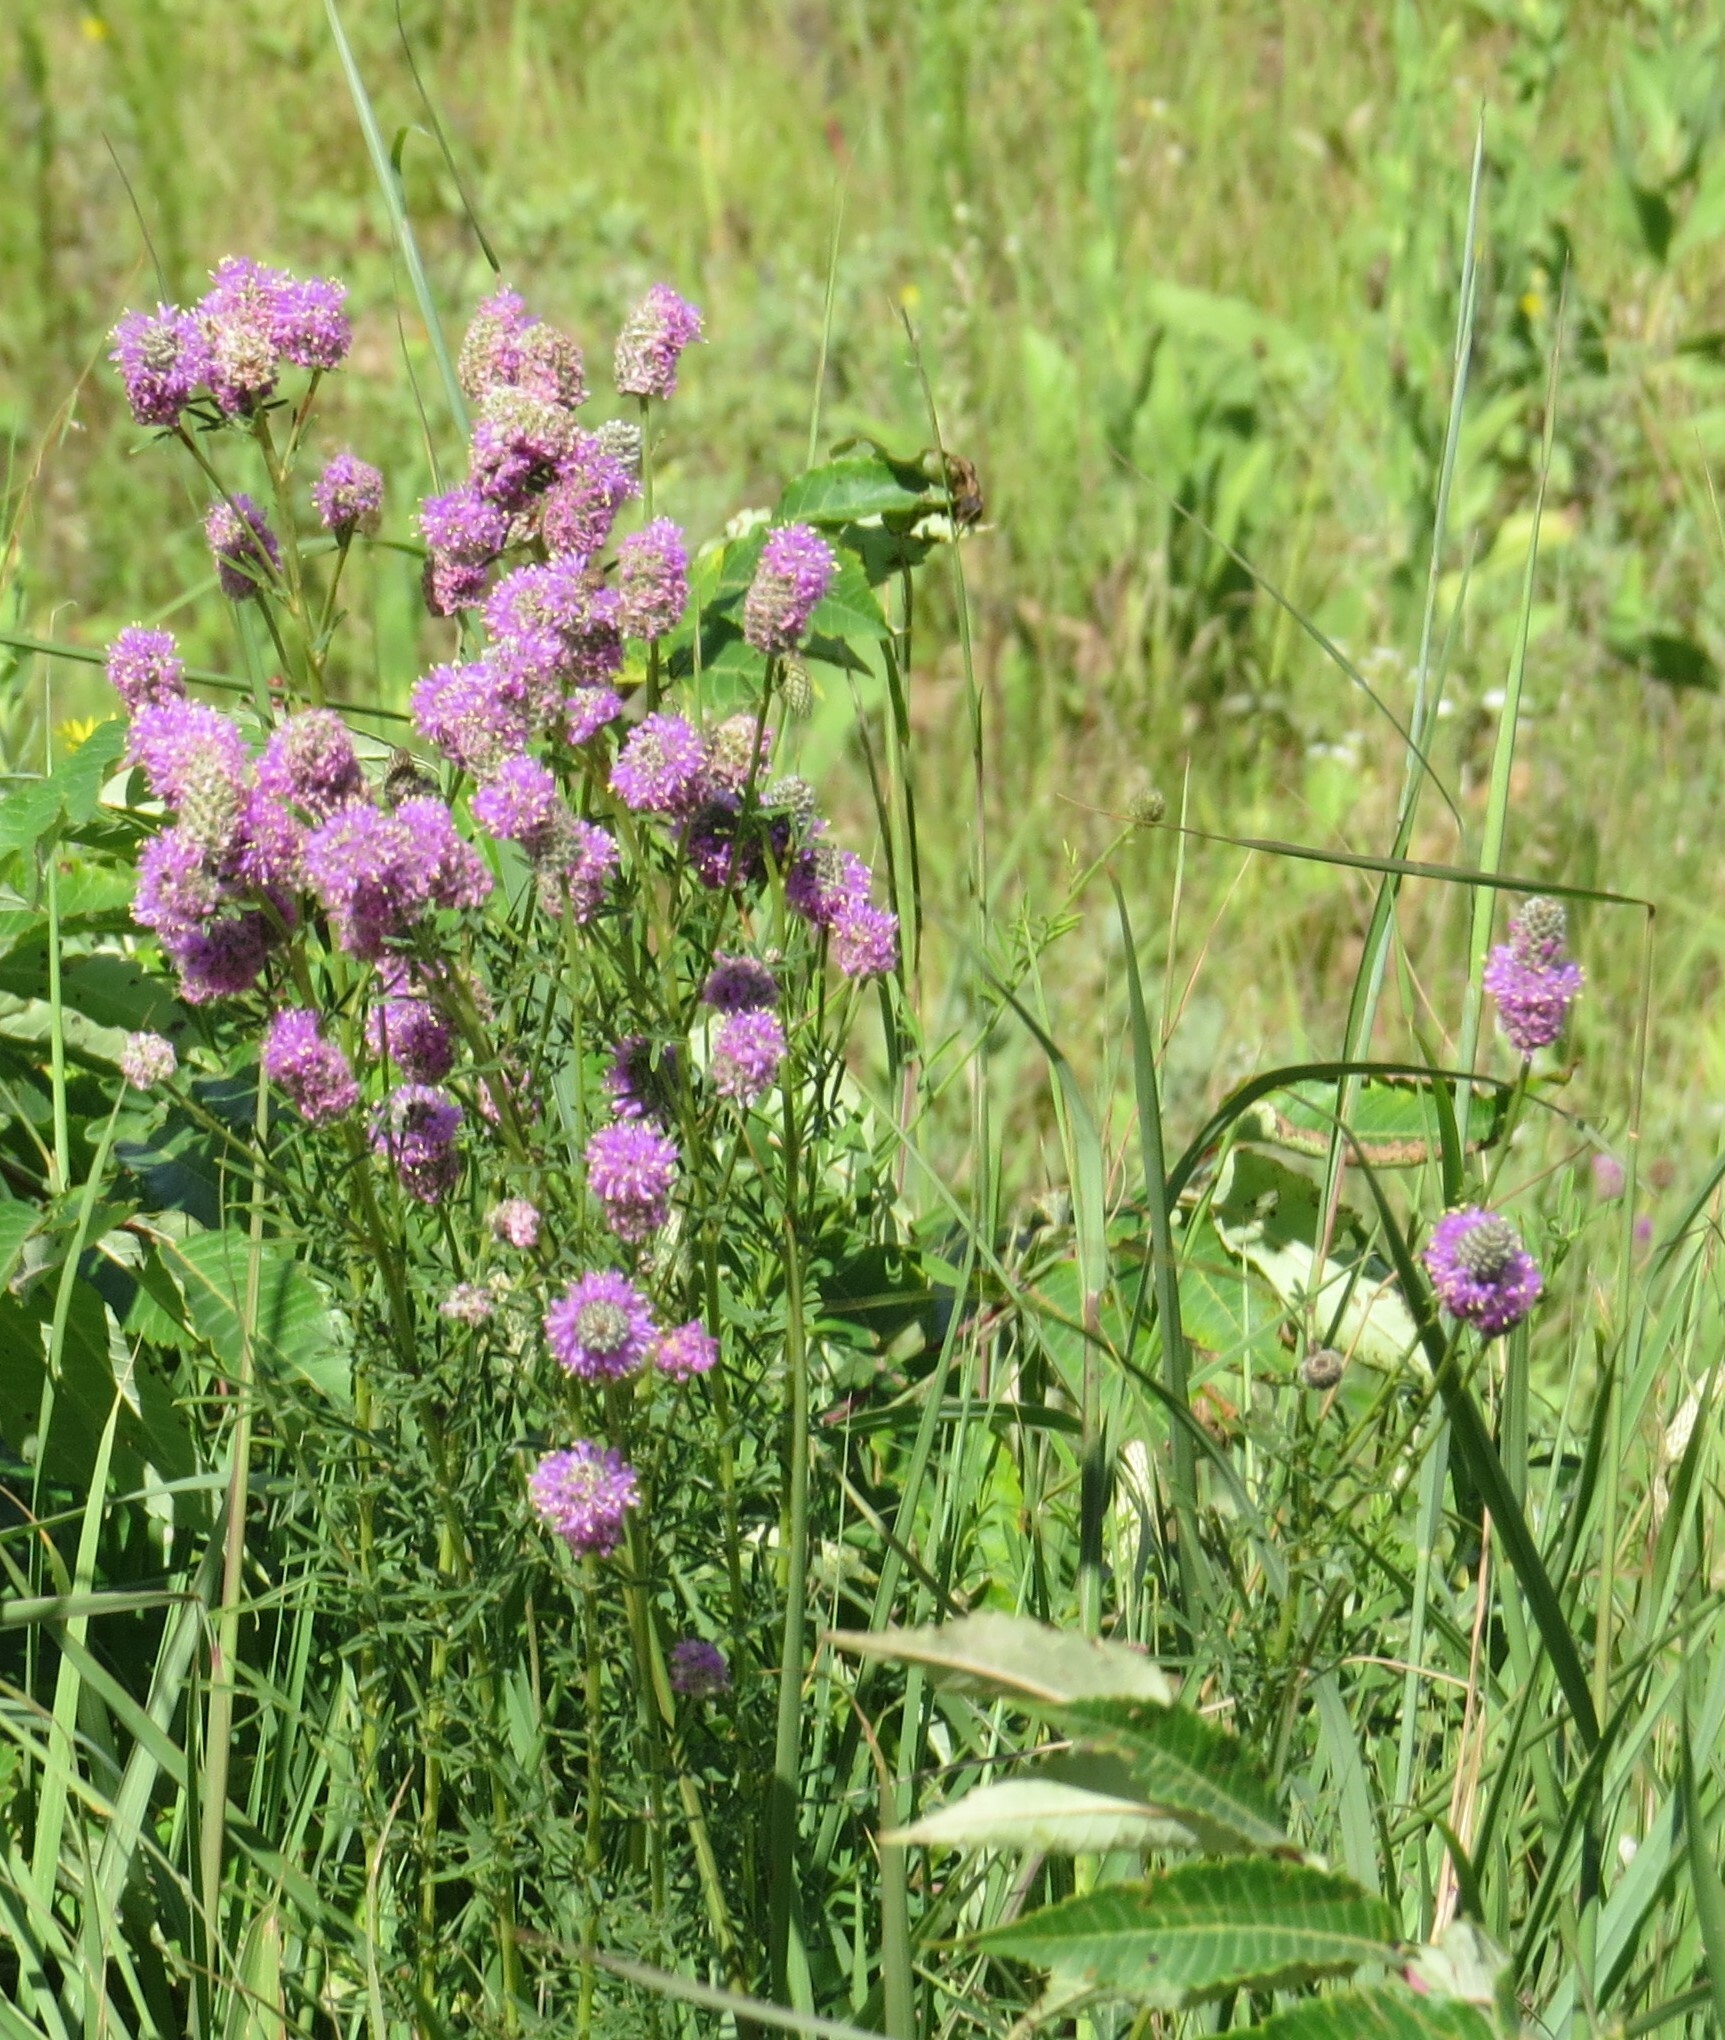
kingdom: Plantae
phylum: Tracheophyta
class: Magnoliopsida
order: Fabales
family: Fabaceae
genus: Dalea
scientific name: Dalea purpurea
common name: Purple prairie-clover
